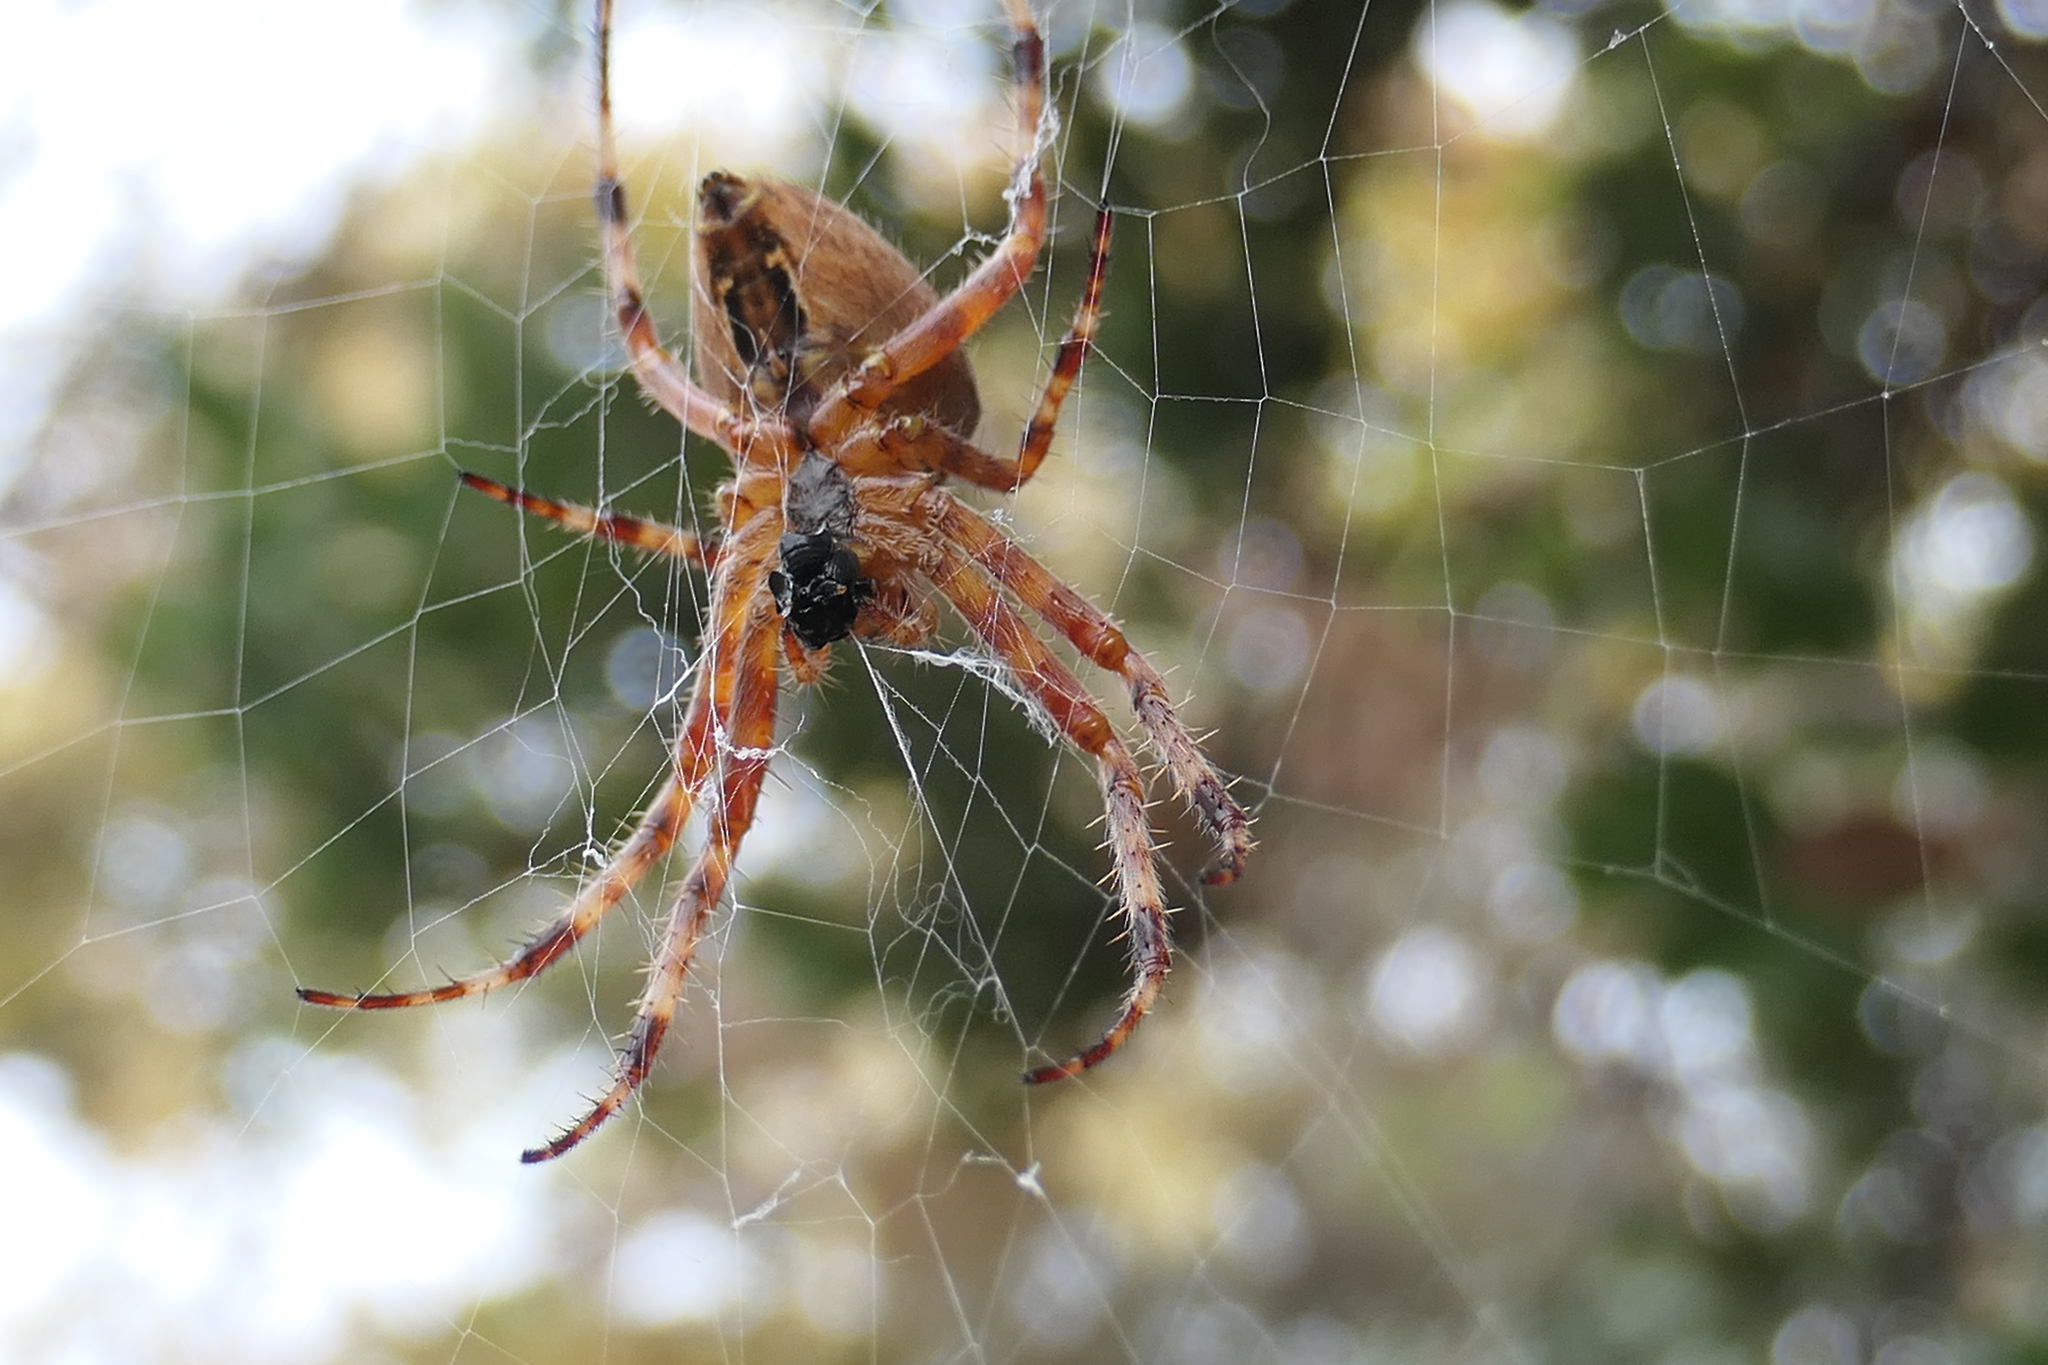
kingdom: Animalia
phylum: Arthropoda
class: Arachnida
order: Araneae
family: Araneidae
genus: Araneus
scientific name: Araneus diadematus
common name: Cross orbweaver
